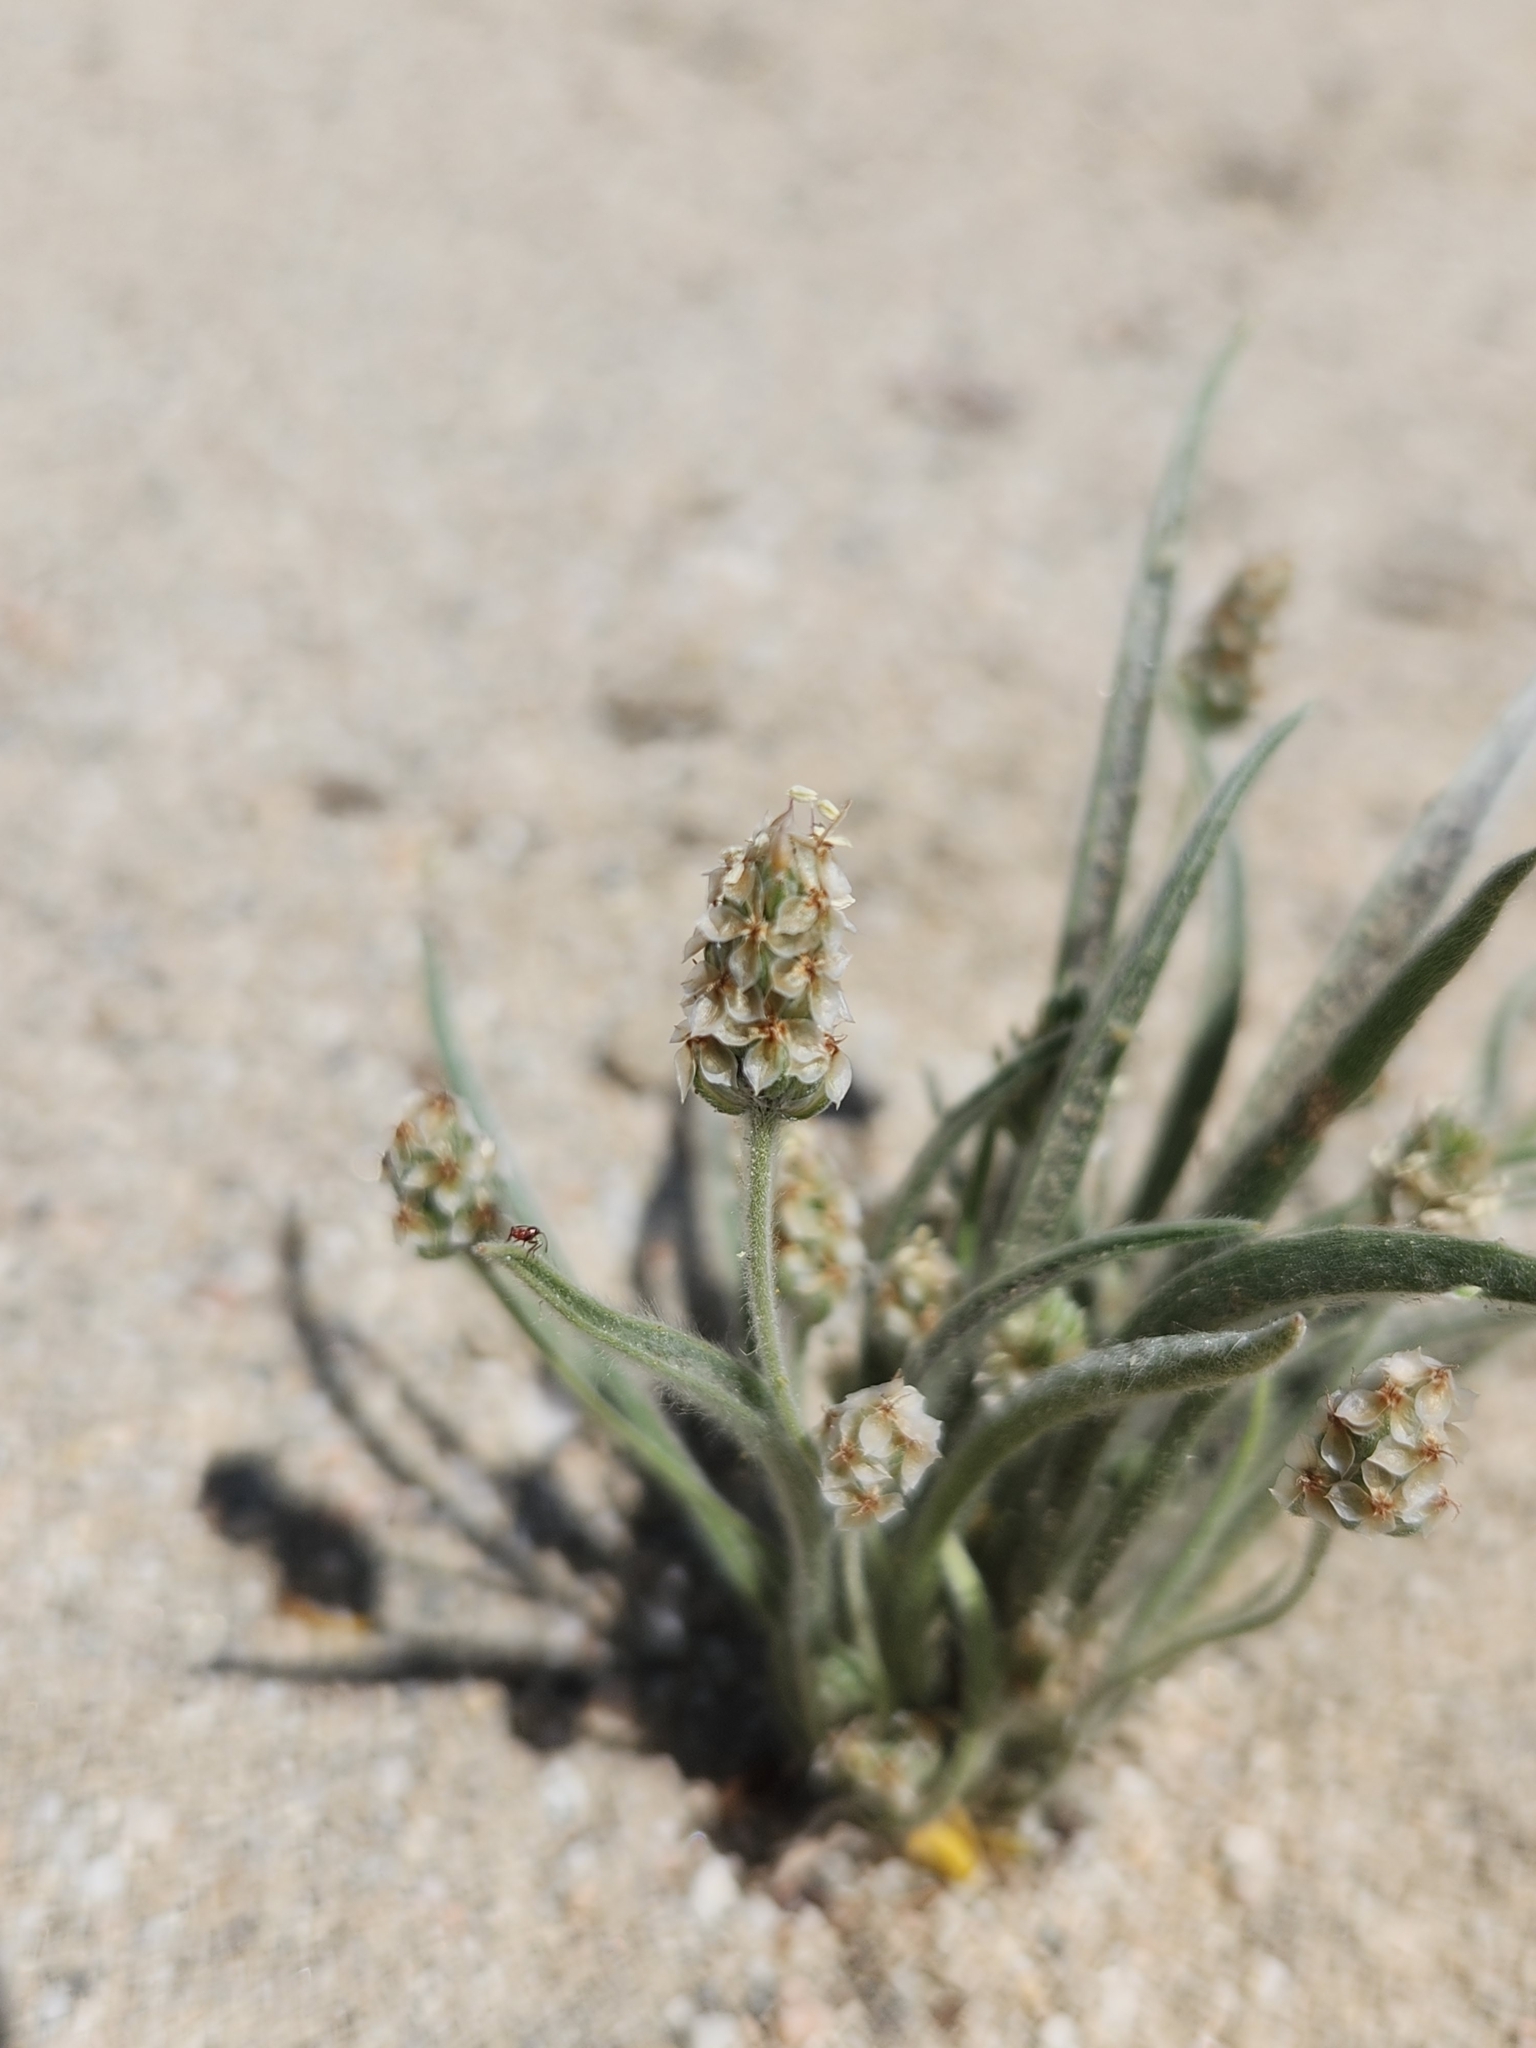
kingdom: Plantae
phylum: Tracheophyta
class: Magnoliopsida
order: Lamiales
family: Plantaginaceae
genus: Plantago
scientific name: Plantago ovata
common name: Blond plantain
